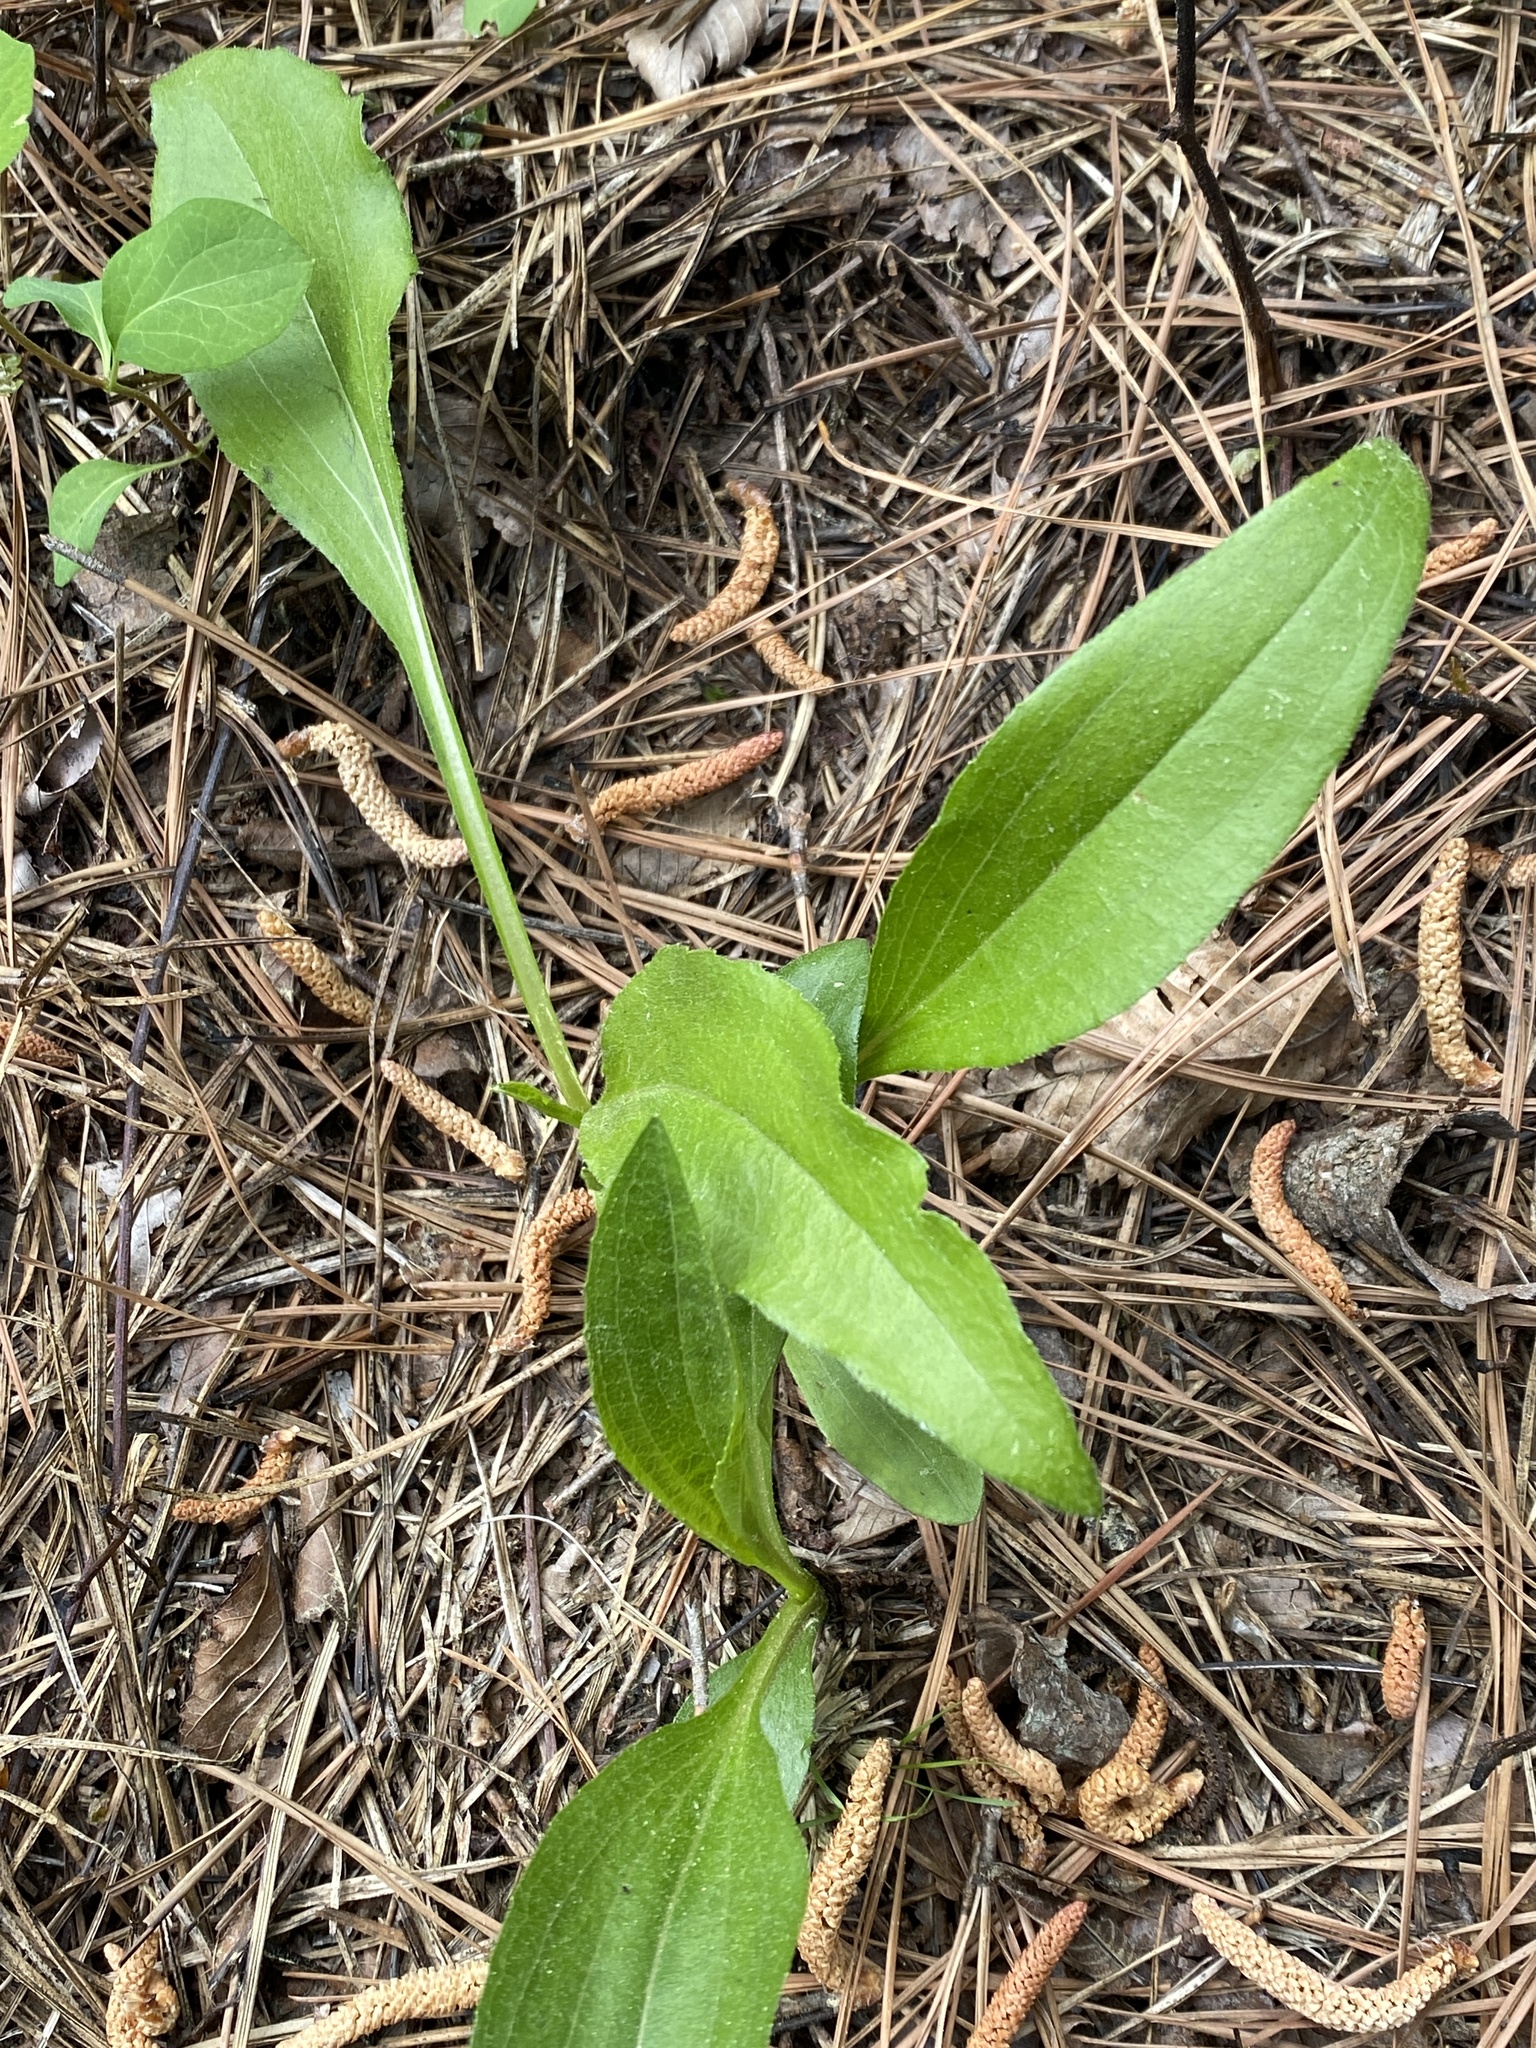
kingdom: Plantae
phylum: Tracheophyta
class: Magnoliopsida
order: Asterales
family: Asteraceae
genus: Echinacea
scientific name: Echinacea laevigata
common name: Smooth coneflower
